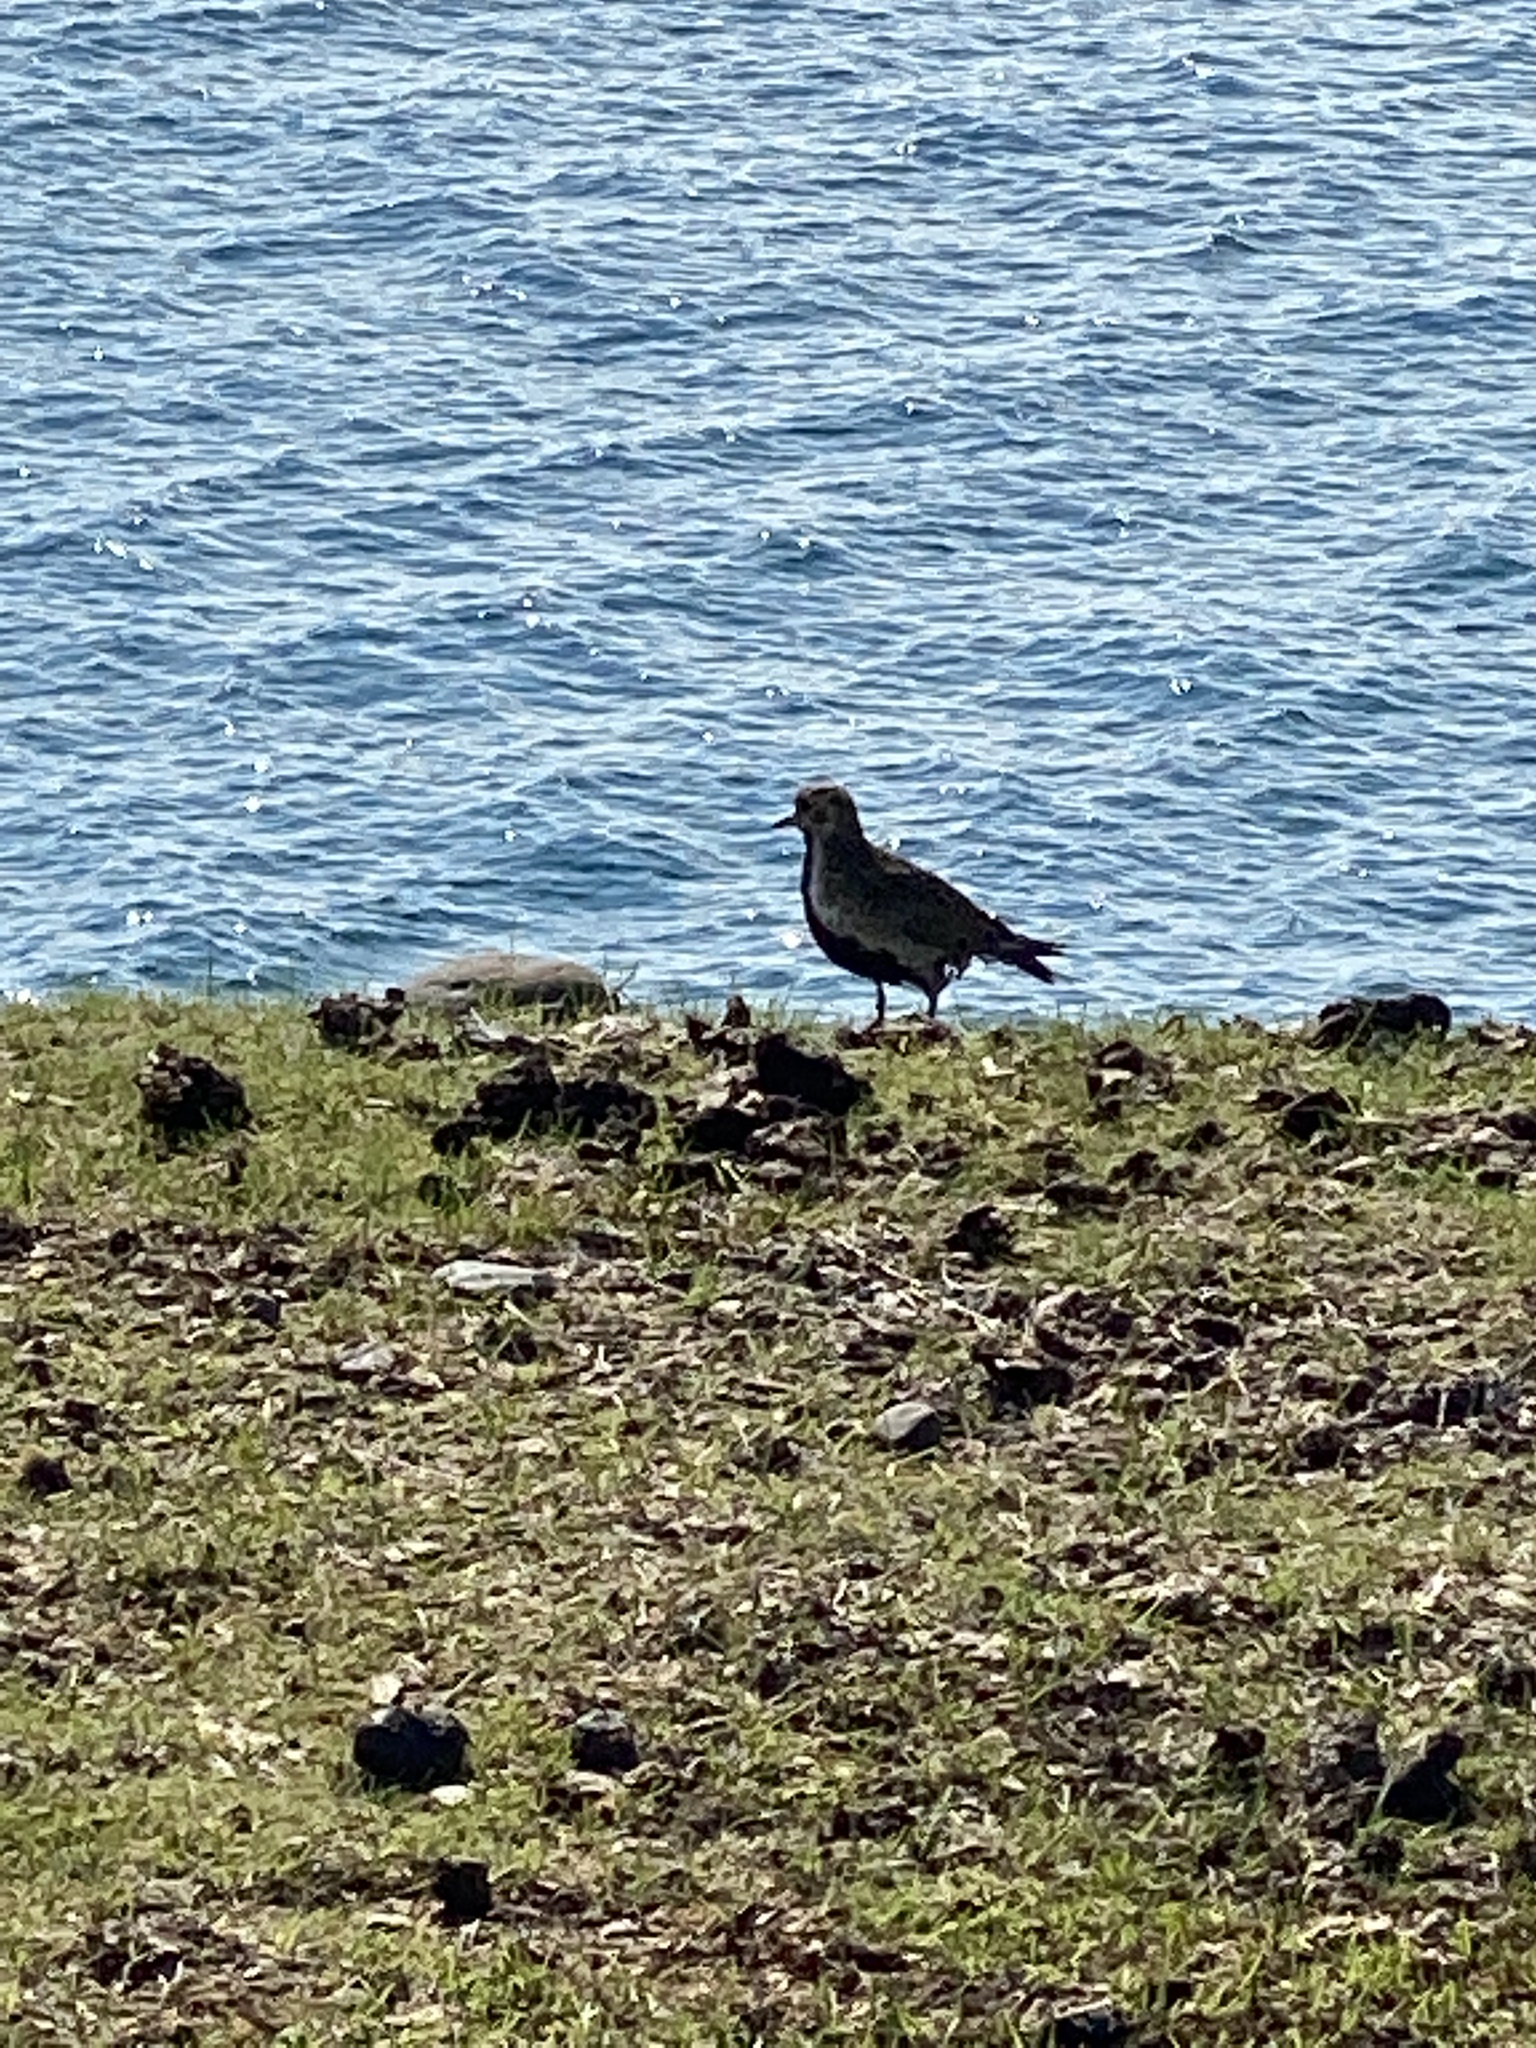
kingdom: Animalia
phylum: Chordata
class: Aves
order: Charadriiformes
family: Charadriidae
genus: Pluvialis
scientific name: Pluvialis apricaria
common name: European golden plover
